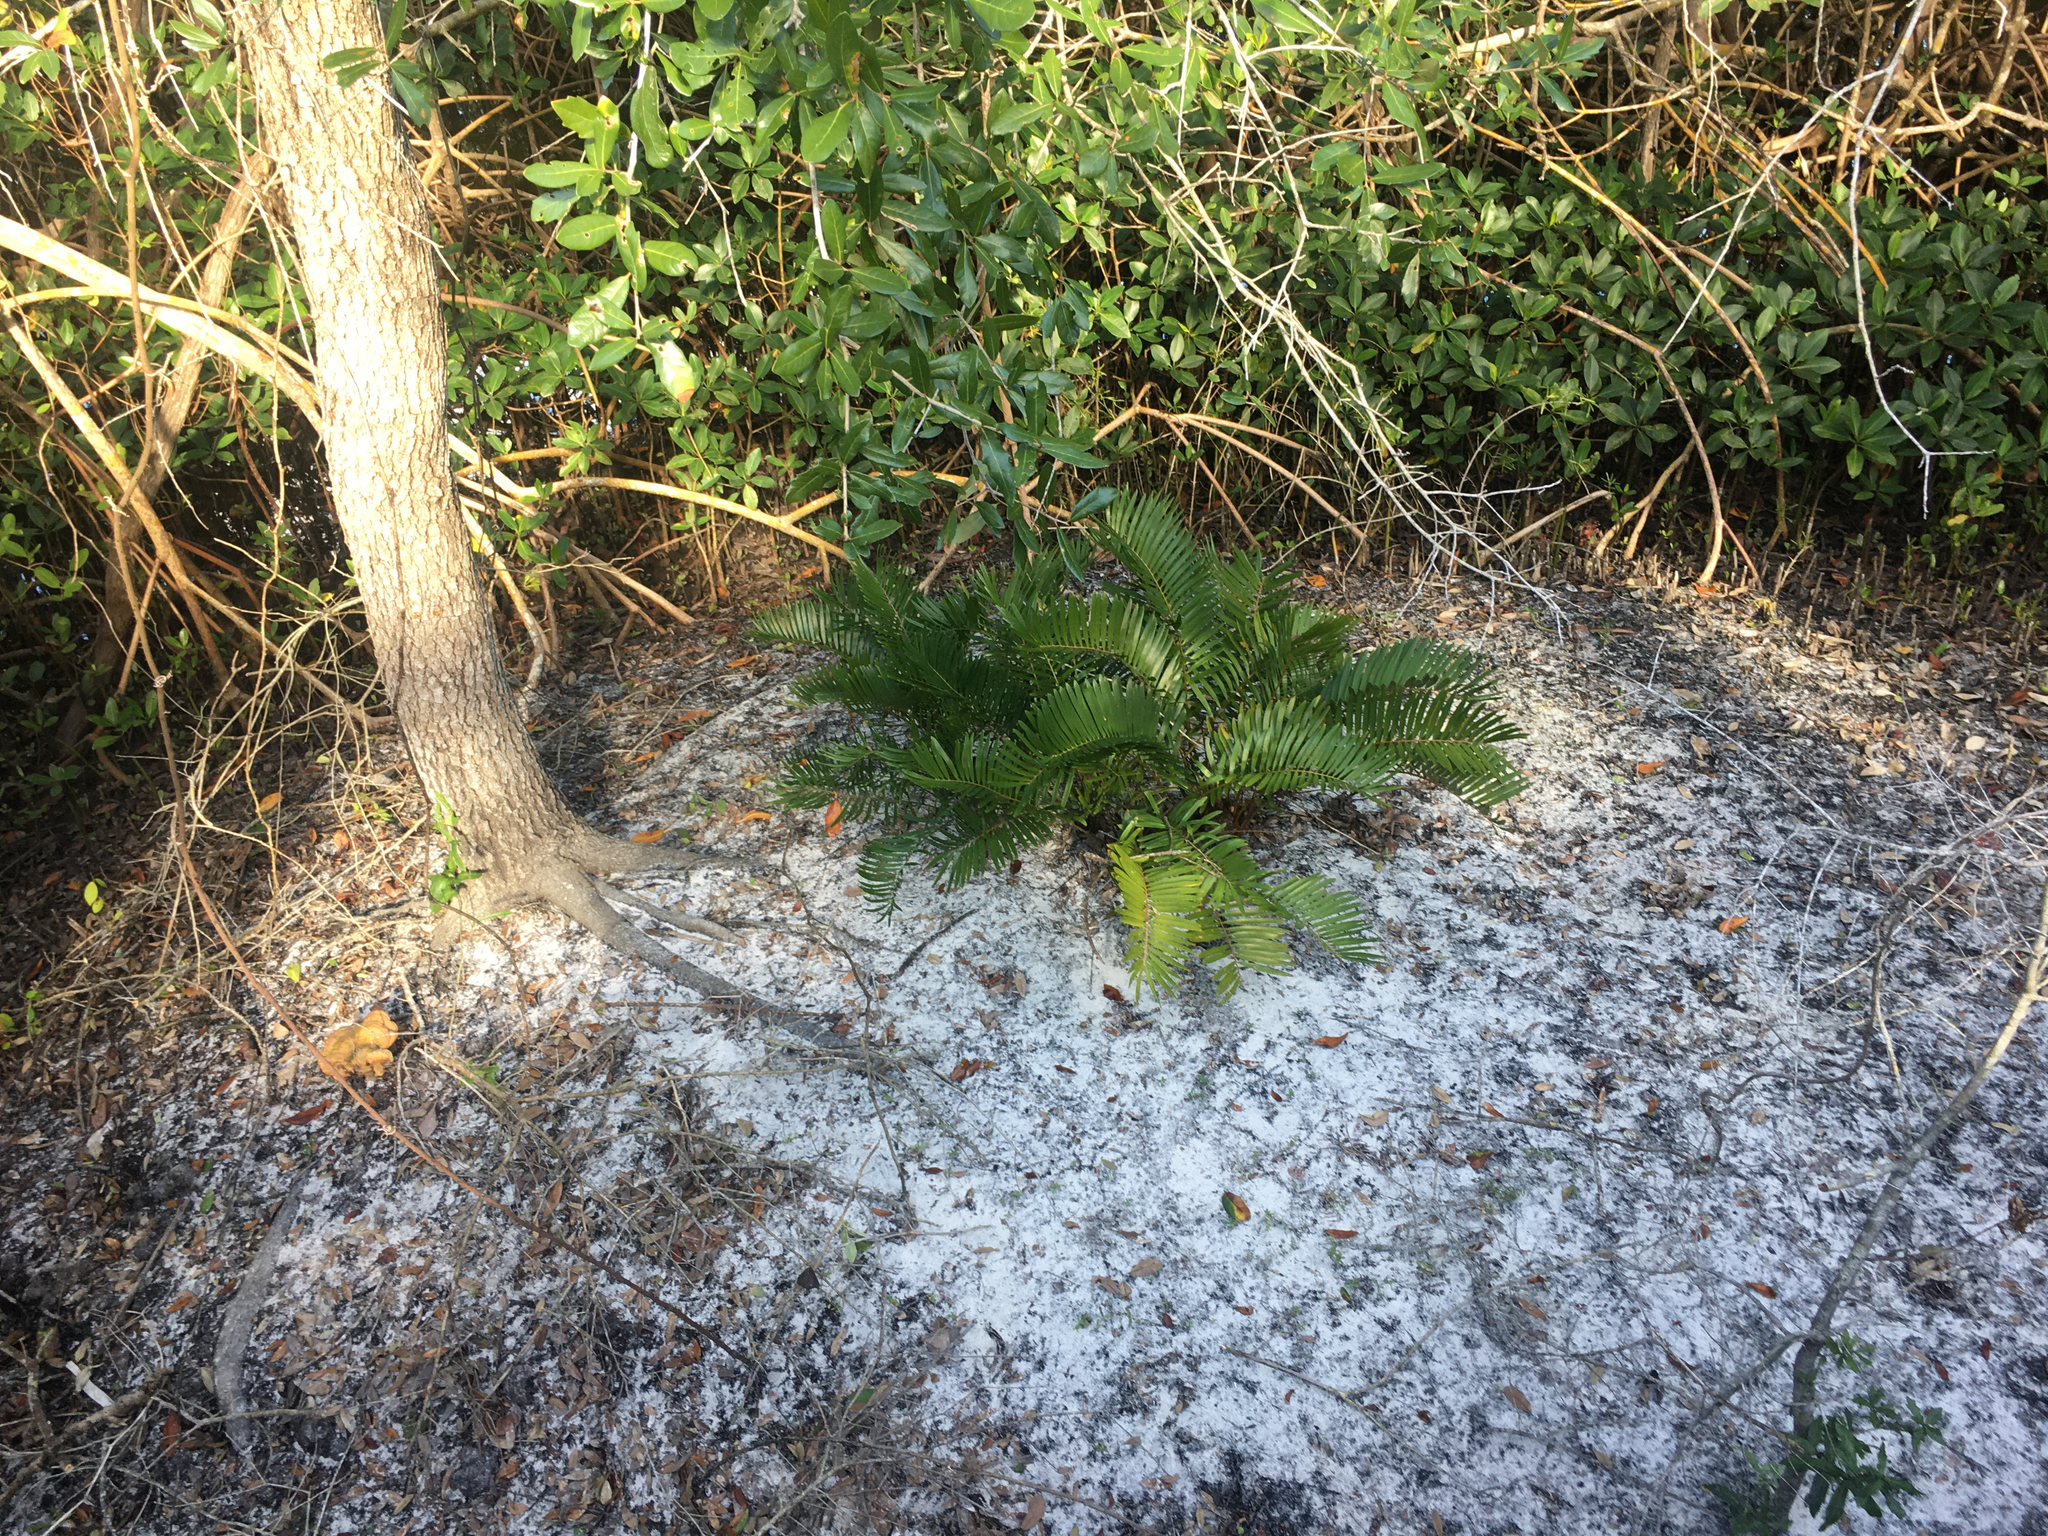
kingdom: Plantae
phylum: Tracheophyta
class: Cycadopsida
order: Cycadales
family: Zamiaceae
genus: Zamia
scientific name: Zamia integrifolia
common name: Florida arrowroot
